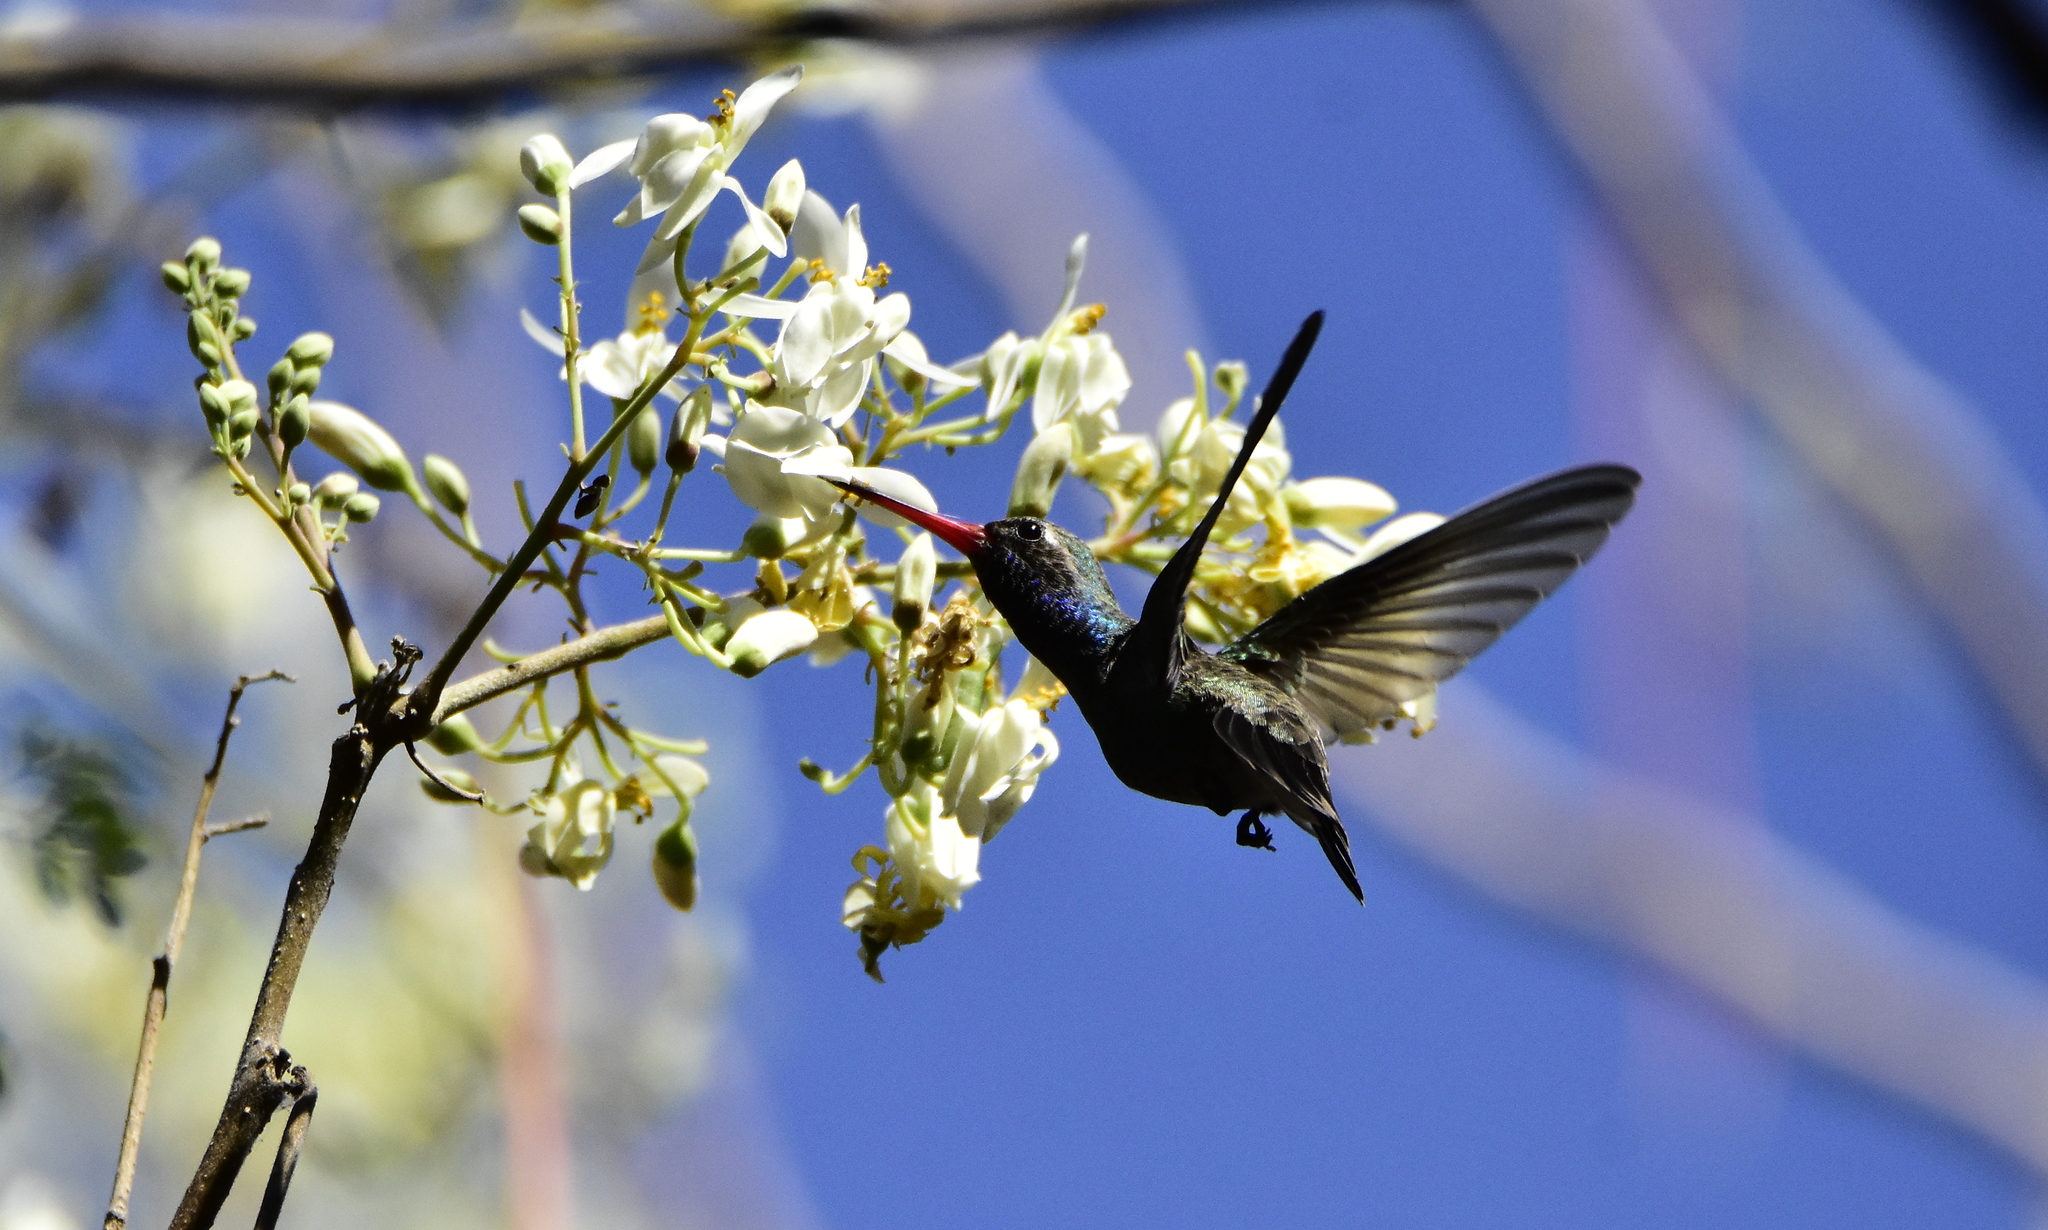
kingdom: Animalia
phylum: Chordata
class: Aves
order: Apodiformes
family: Trochilidae
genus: Cynanthus
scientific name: Cynanthus latirostris
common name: Broad-billed hummingbird
